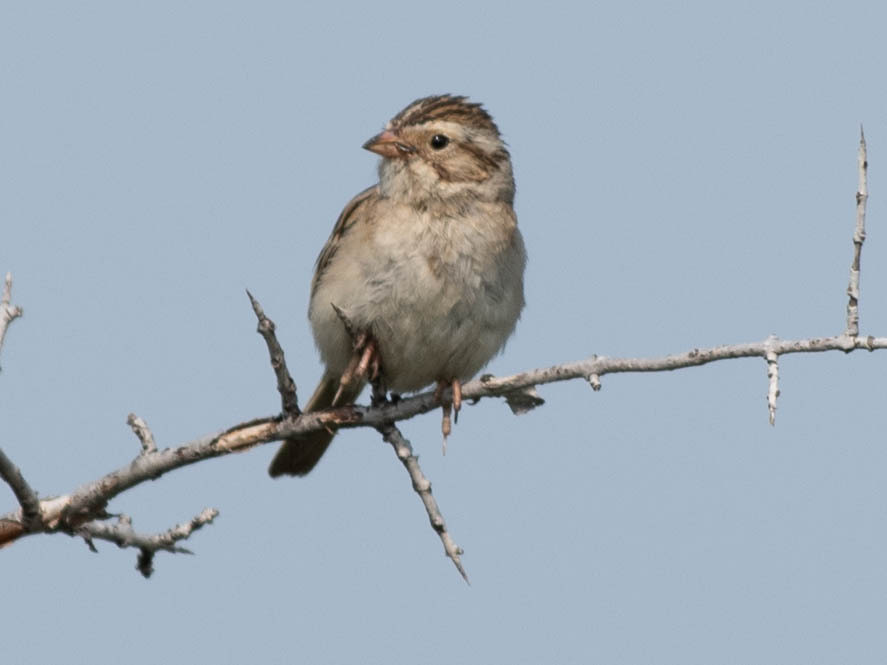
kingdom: Animalia
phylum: Chordata
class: Aves
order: Passeriformes
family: Passerellidae
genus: Spizella
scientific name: Spizella pallida
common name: Clay-colored sparrow
